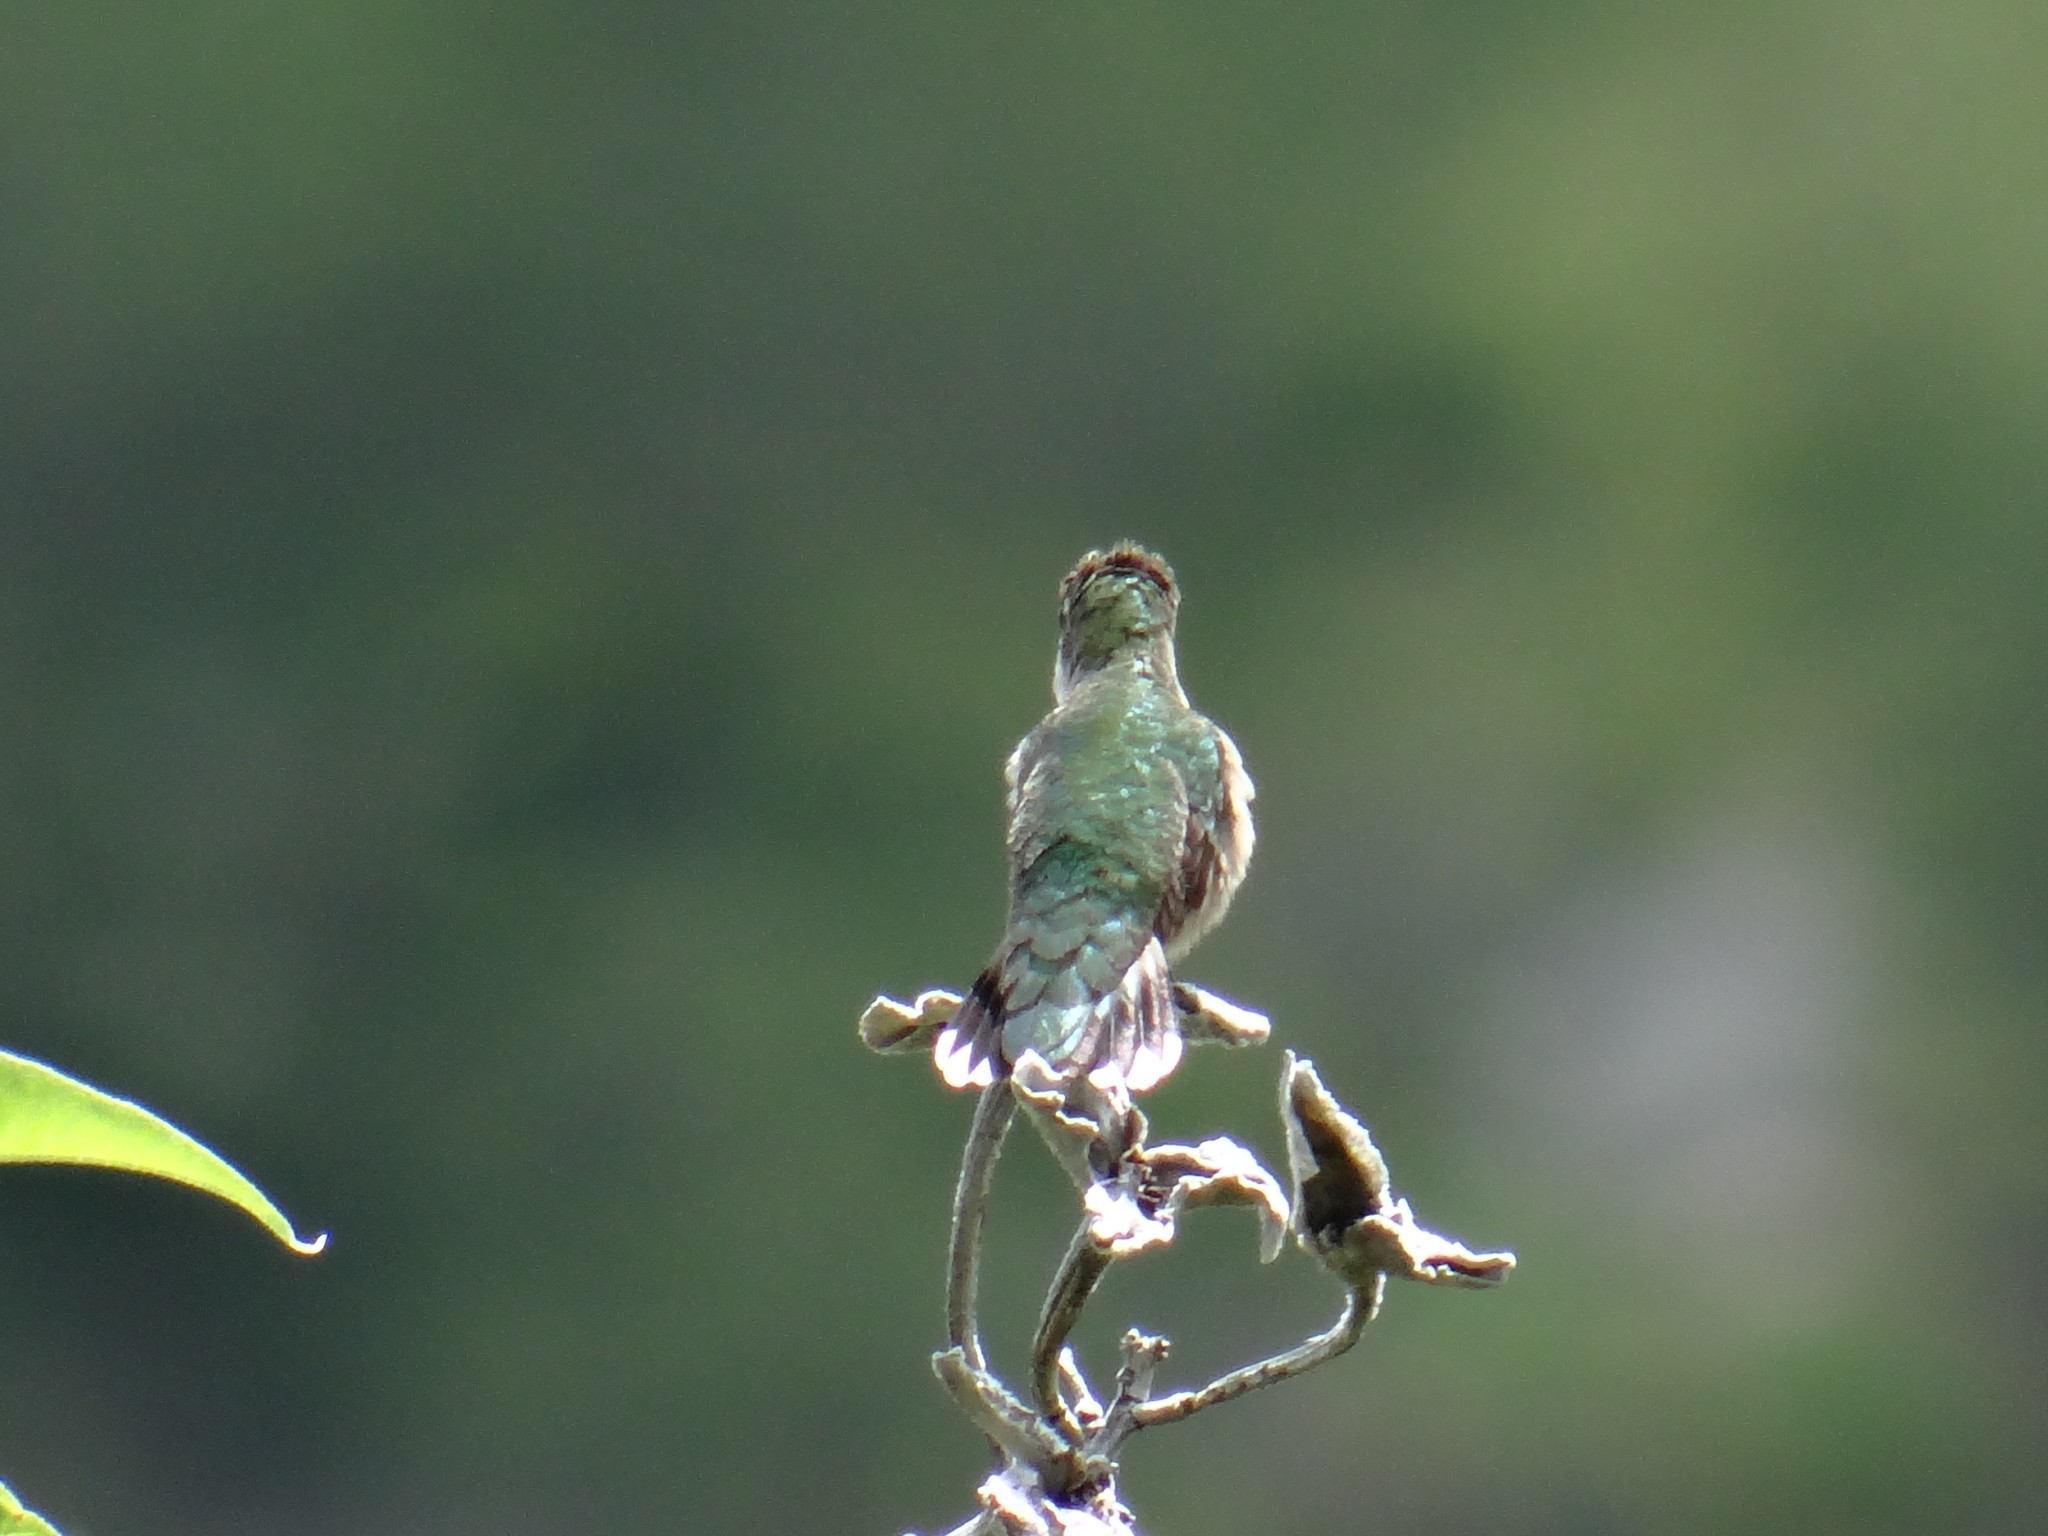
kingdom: Animalia
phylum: Chordata
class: Aves
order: Apodiformes
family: Trochilidae
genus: Archilochus
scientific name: Archilochus colubris
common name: Ruby-throated hummingbird
